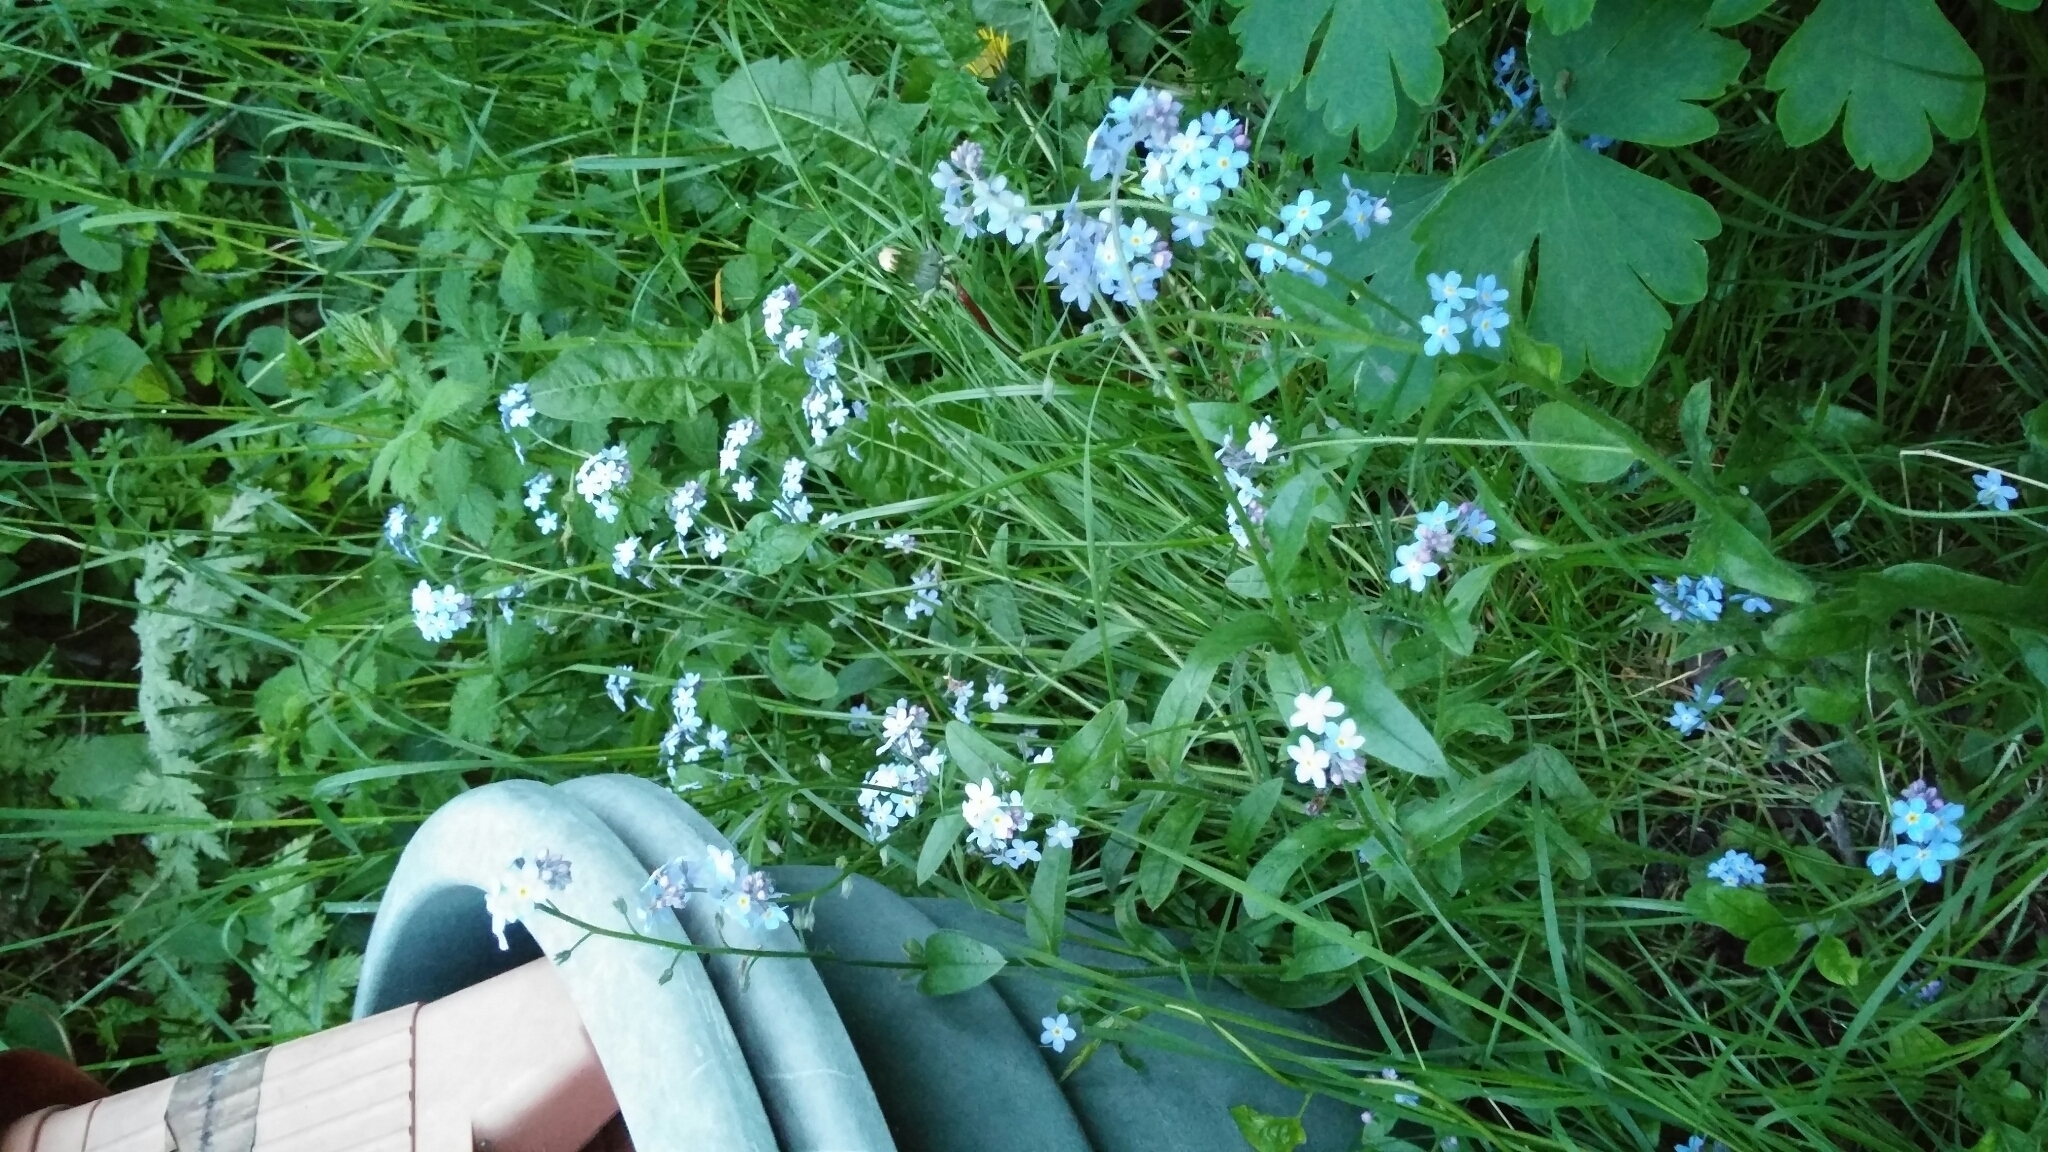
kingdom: Plantae
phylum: Tracheophyta
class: Magnoliopsida
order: Boraginales
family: Boraginaceae
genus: Myosotis
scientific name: Myosotis arvensis
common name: Field forget-me-not
